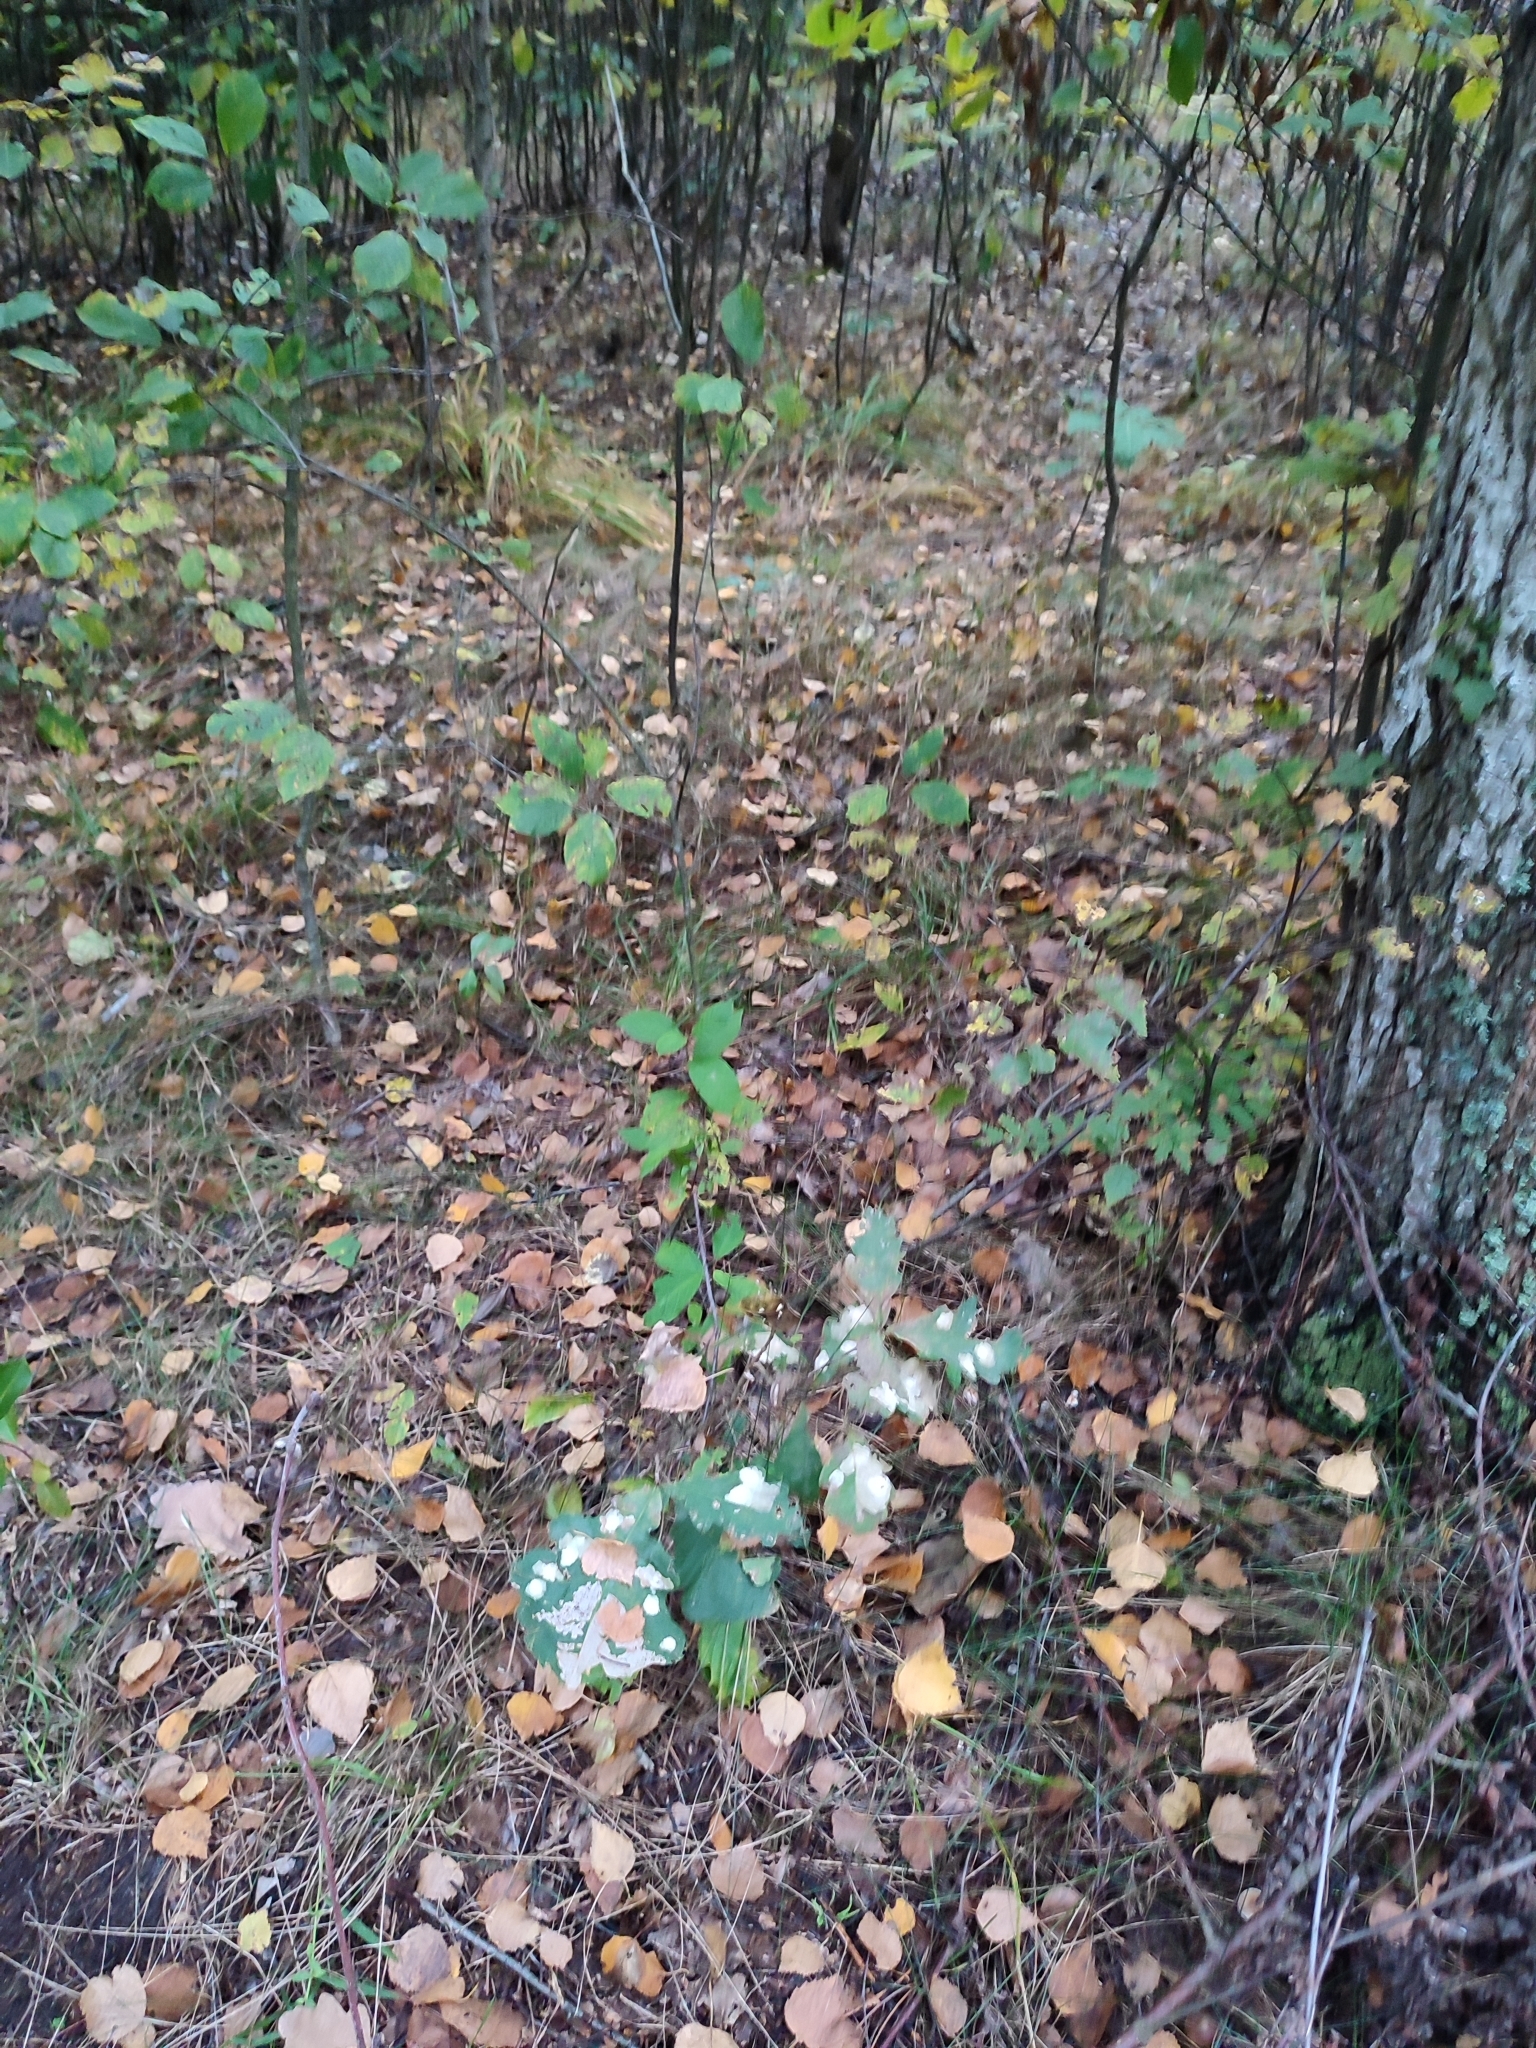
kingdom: Plantae
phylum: Tracheophyta
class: Magnoliopsida
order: Fagales
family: Fagaceae
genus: Quercus
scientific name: Quercus robur
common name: Pedunculate oak
